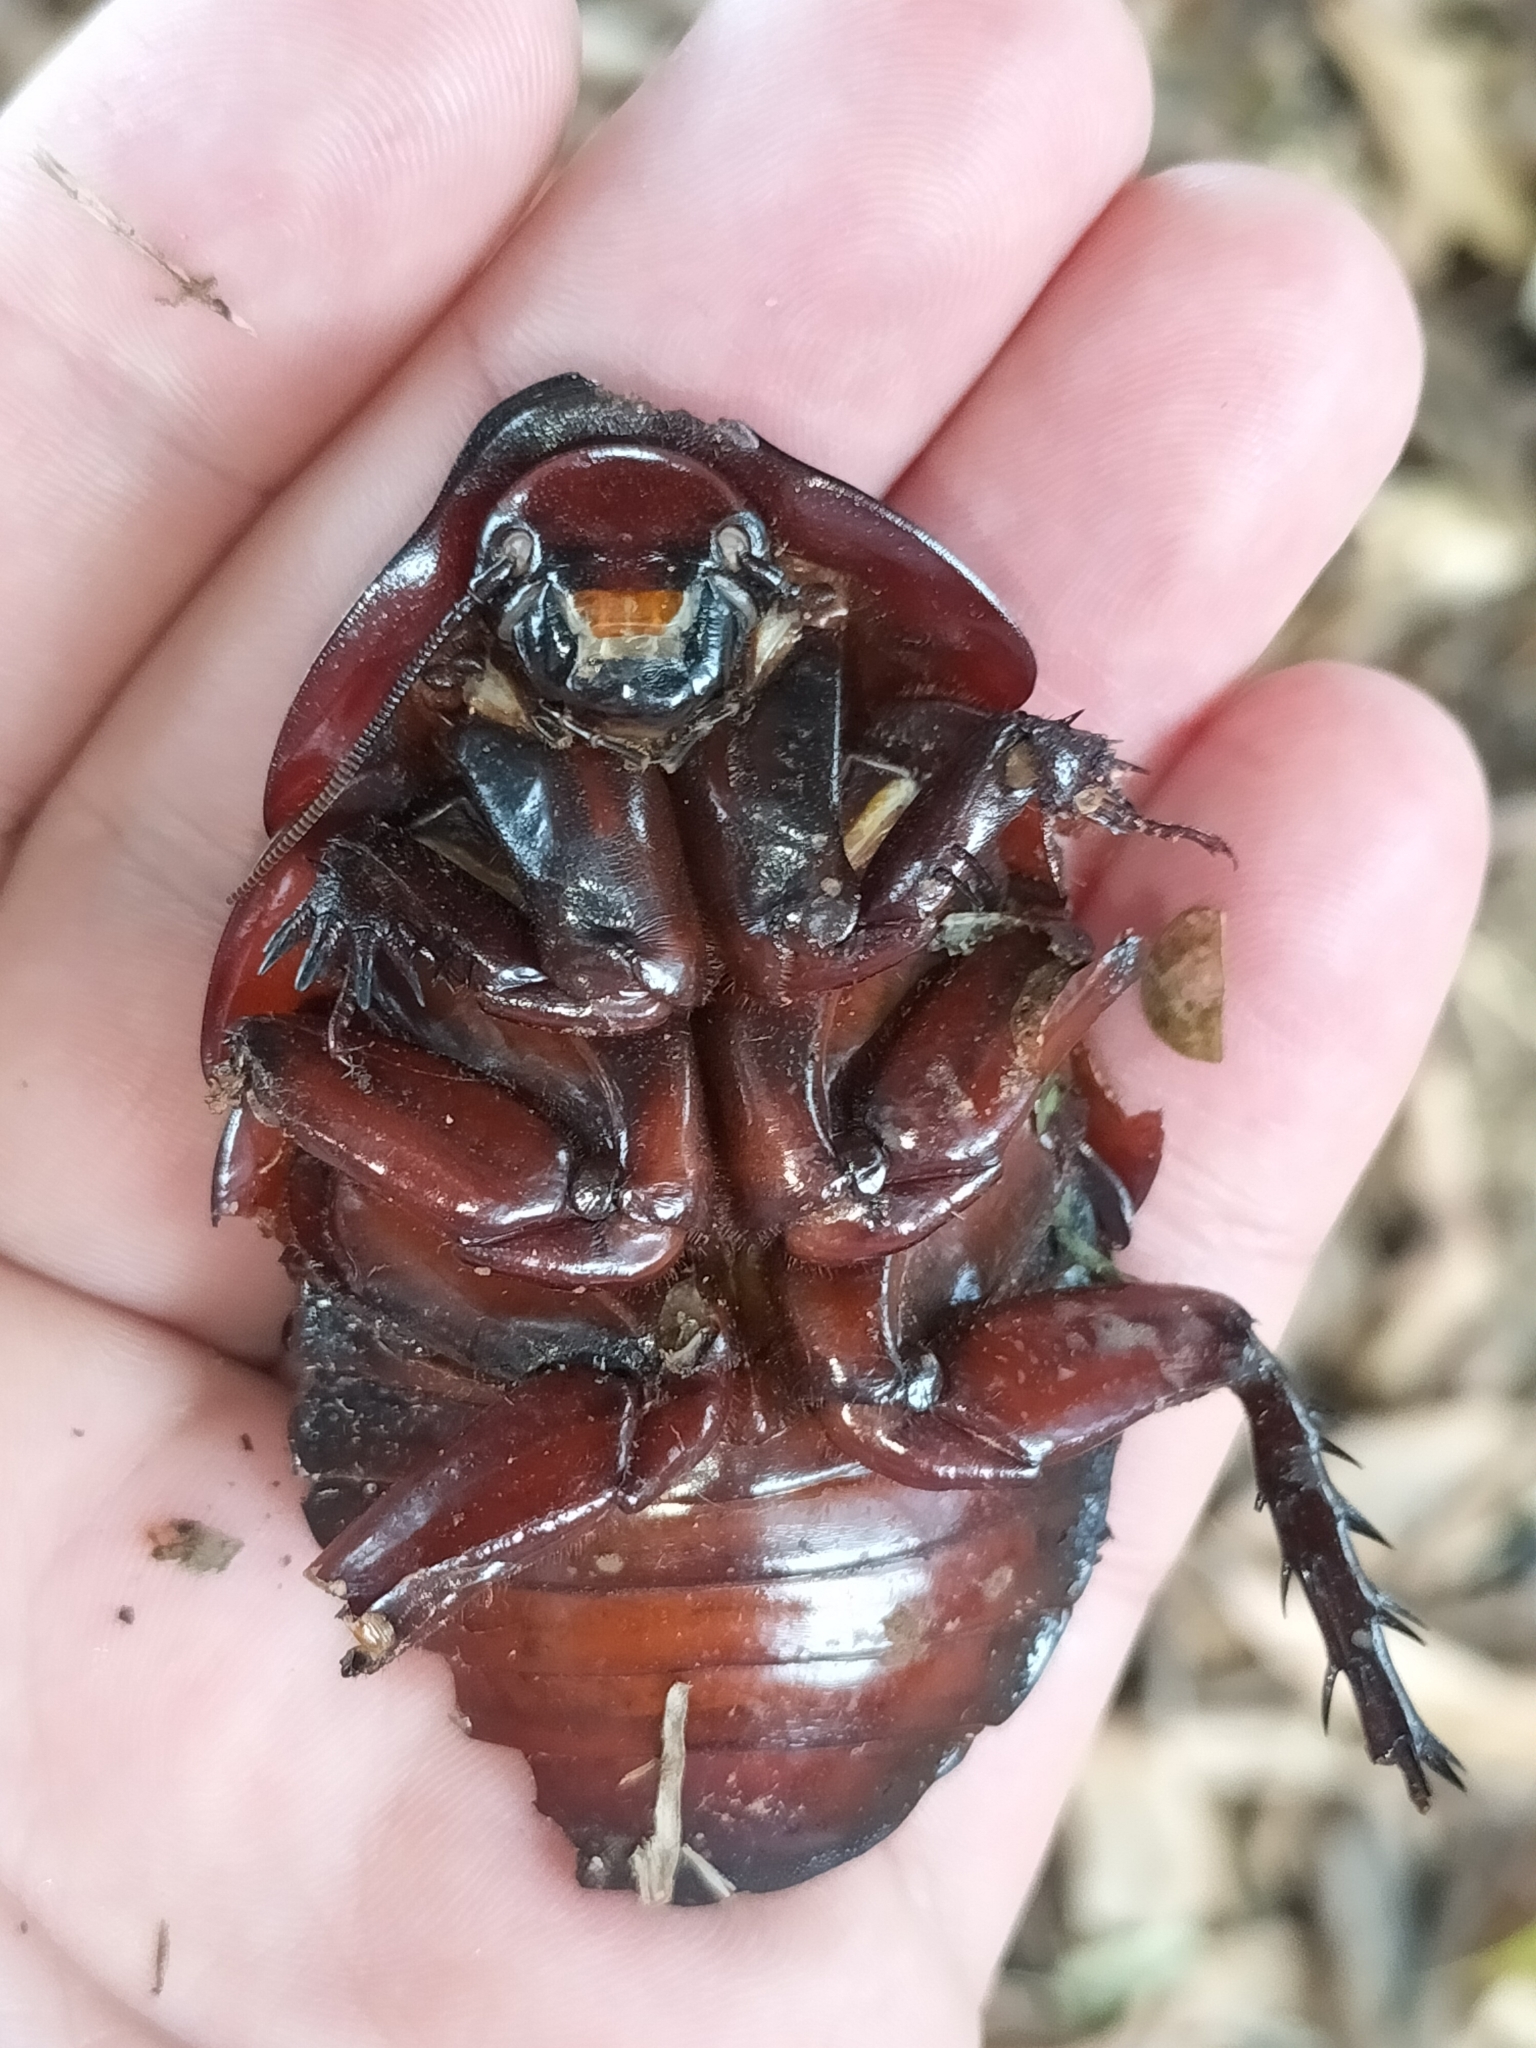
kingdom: Animalia
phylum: Arthropoda
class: Insecta
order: Blattodea
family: Blaberidae
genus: Macropanesthia
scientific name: Macropanesthia rhinoceros
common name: Giant burrowing cockroach
